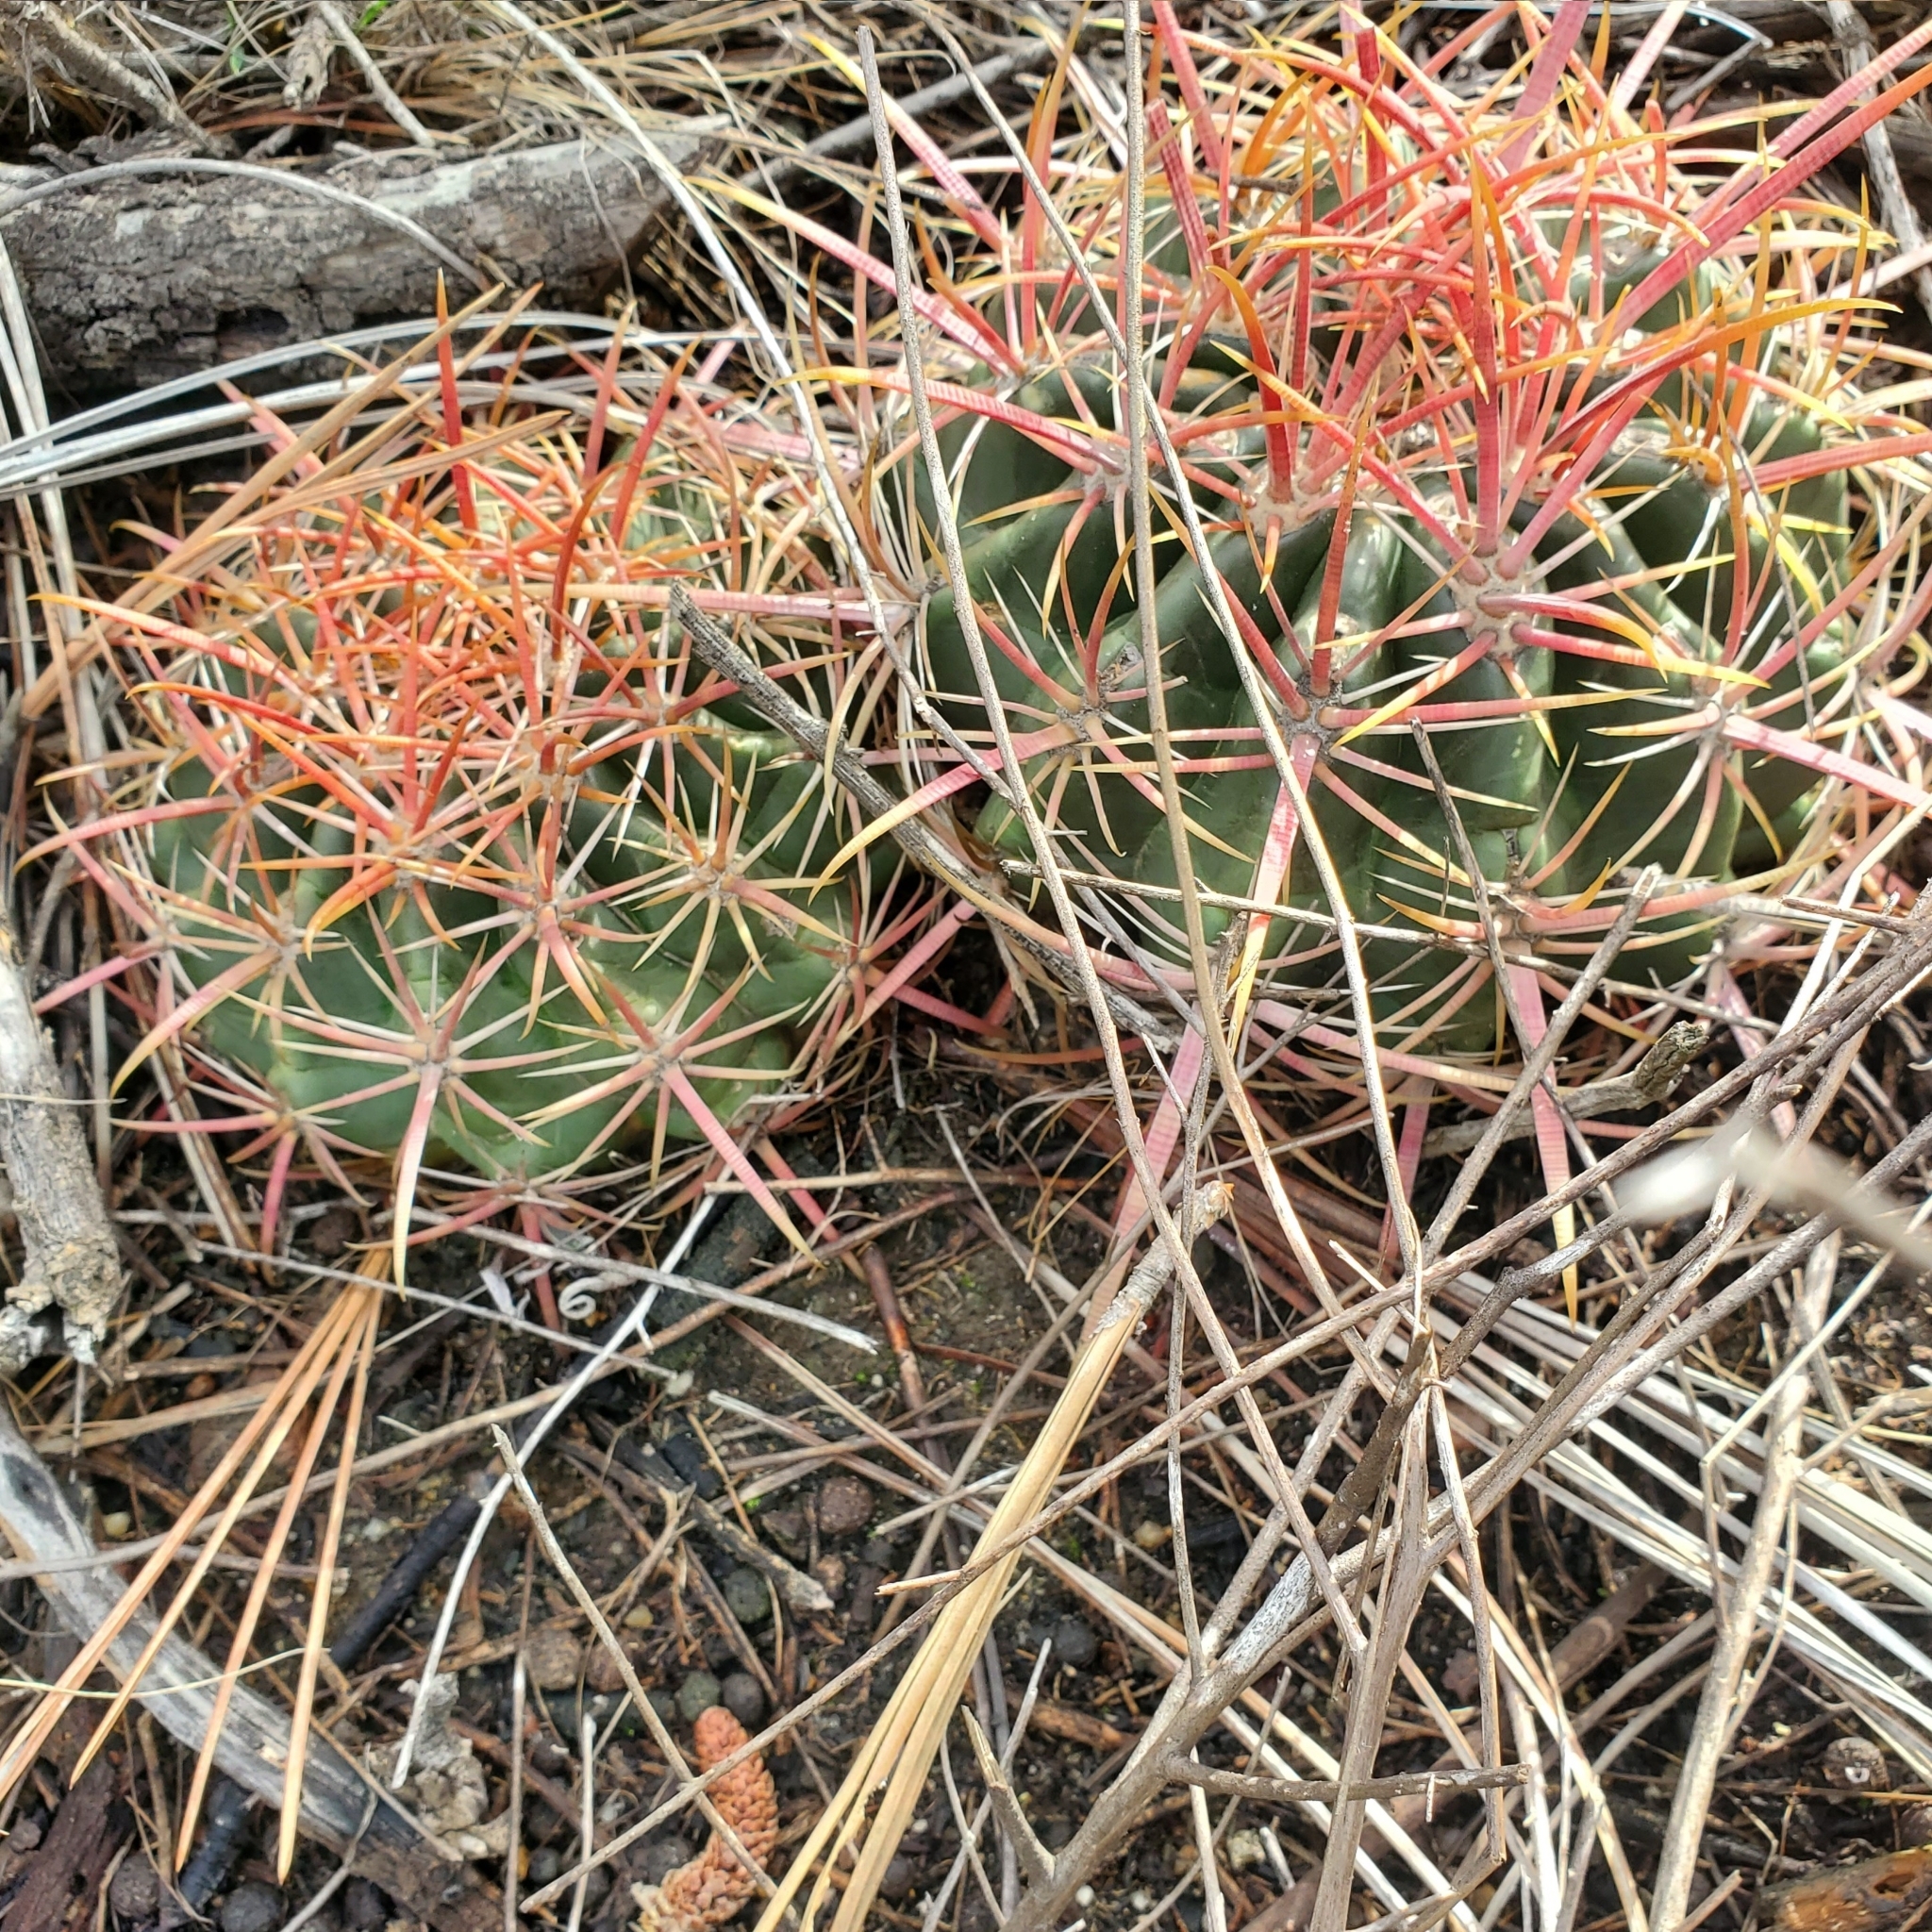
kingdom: Plantae
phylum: Tracheophyta
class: Magnoliopsida
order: Caryophyllales
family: Cactaceae
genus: Ferocactus
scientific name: Ferocactus viridescens
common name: San diego barrel cactus
